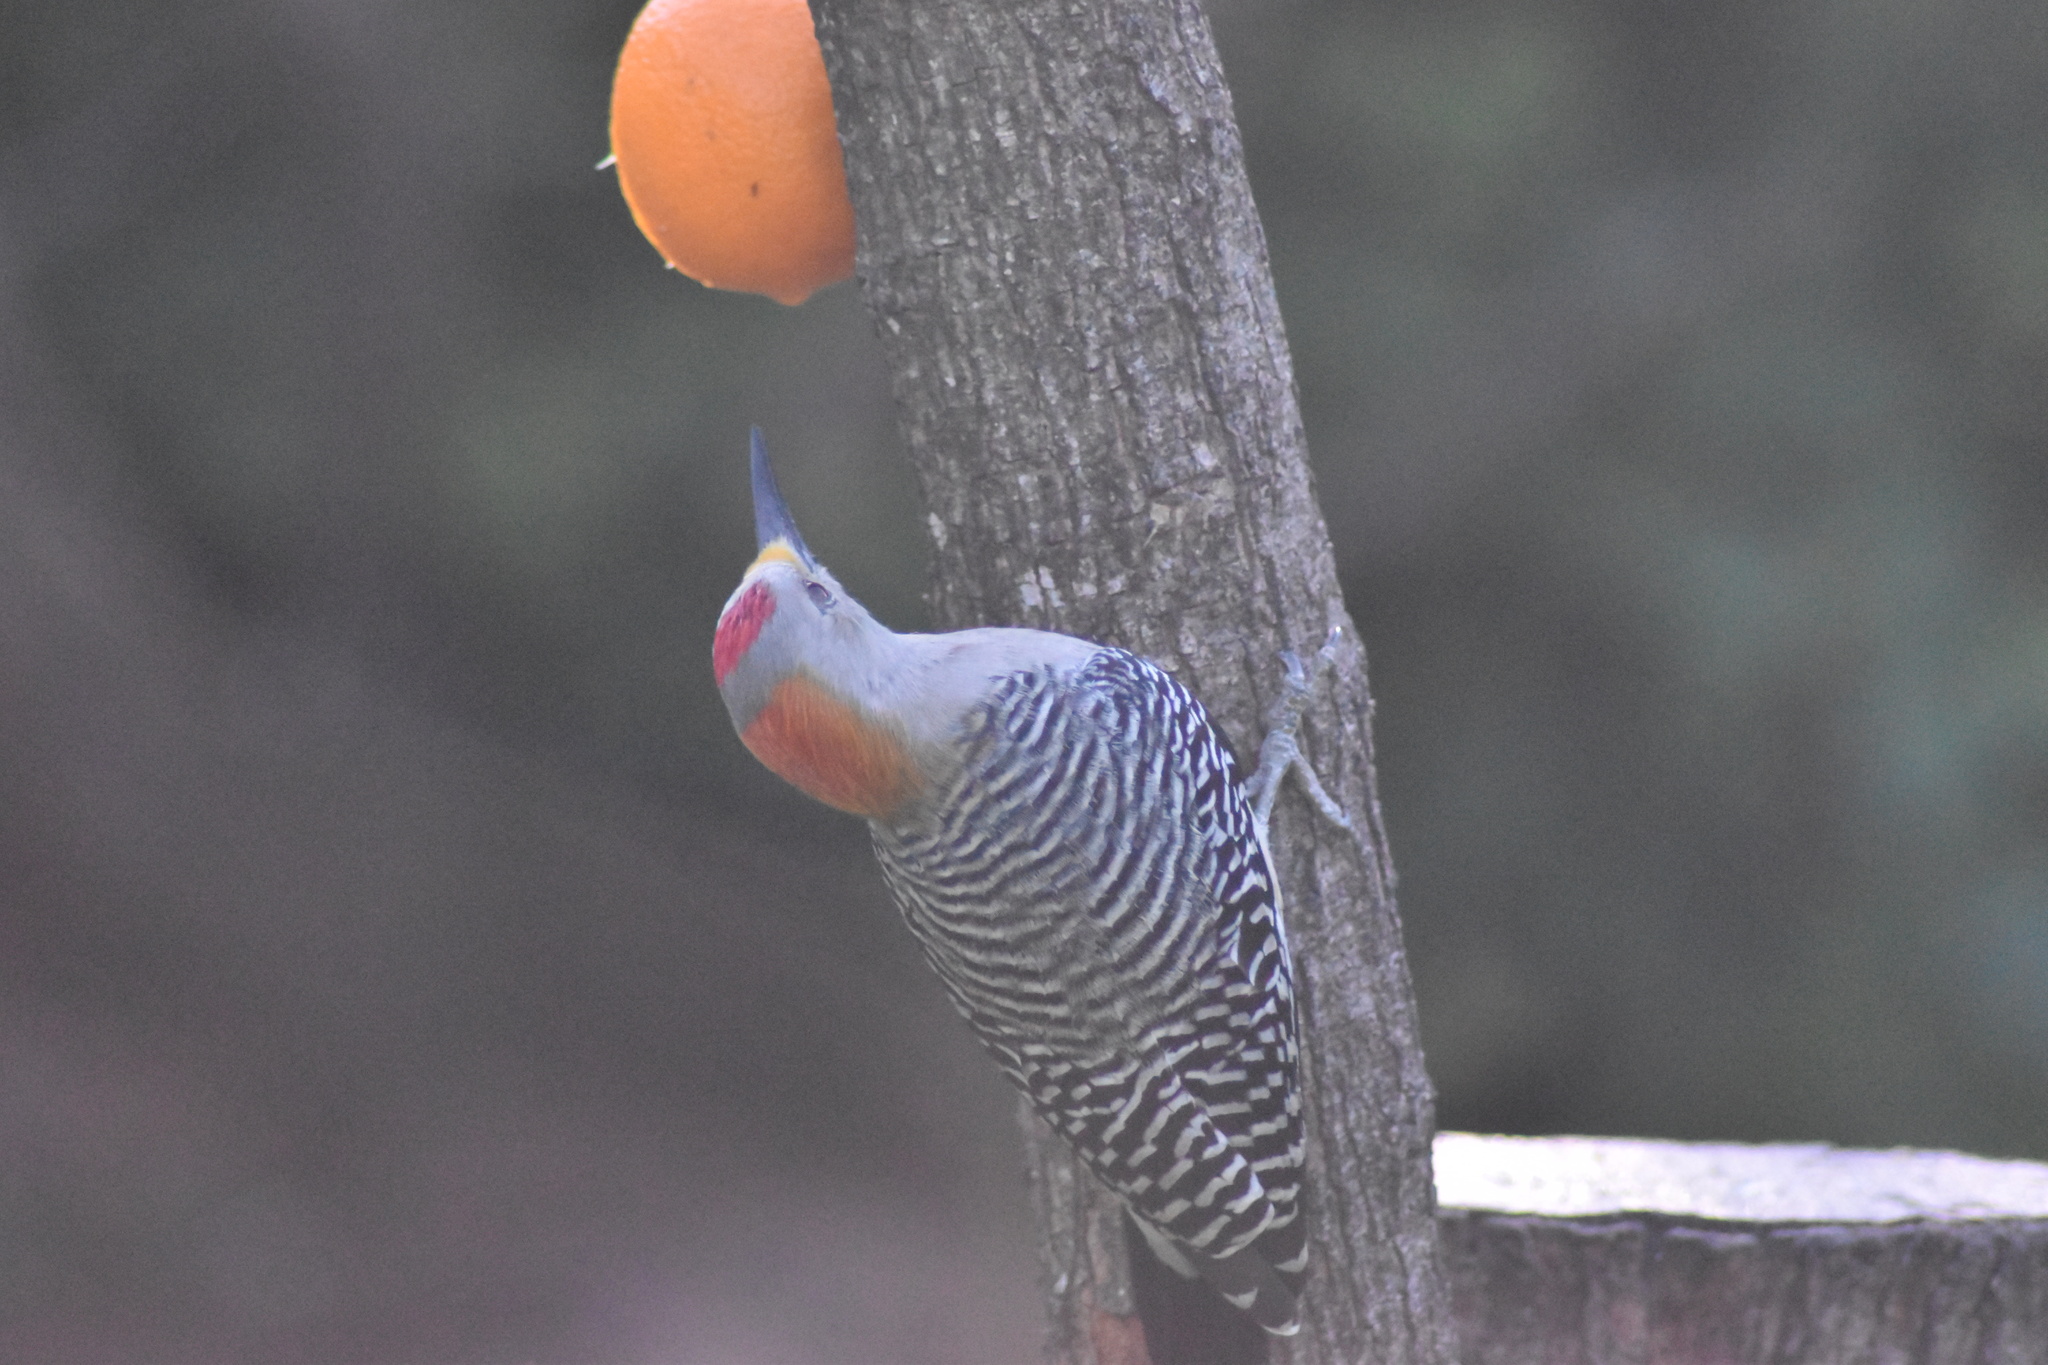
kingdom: Animalia
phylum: Chordata
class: Aves
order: Piciformes
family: Picidae
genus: Melanerpes
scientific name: Melanerpes aurifrons
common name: Golden-fronted woodpecker
